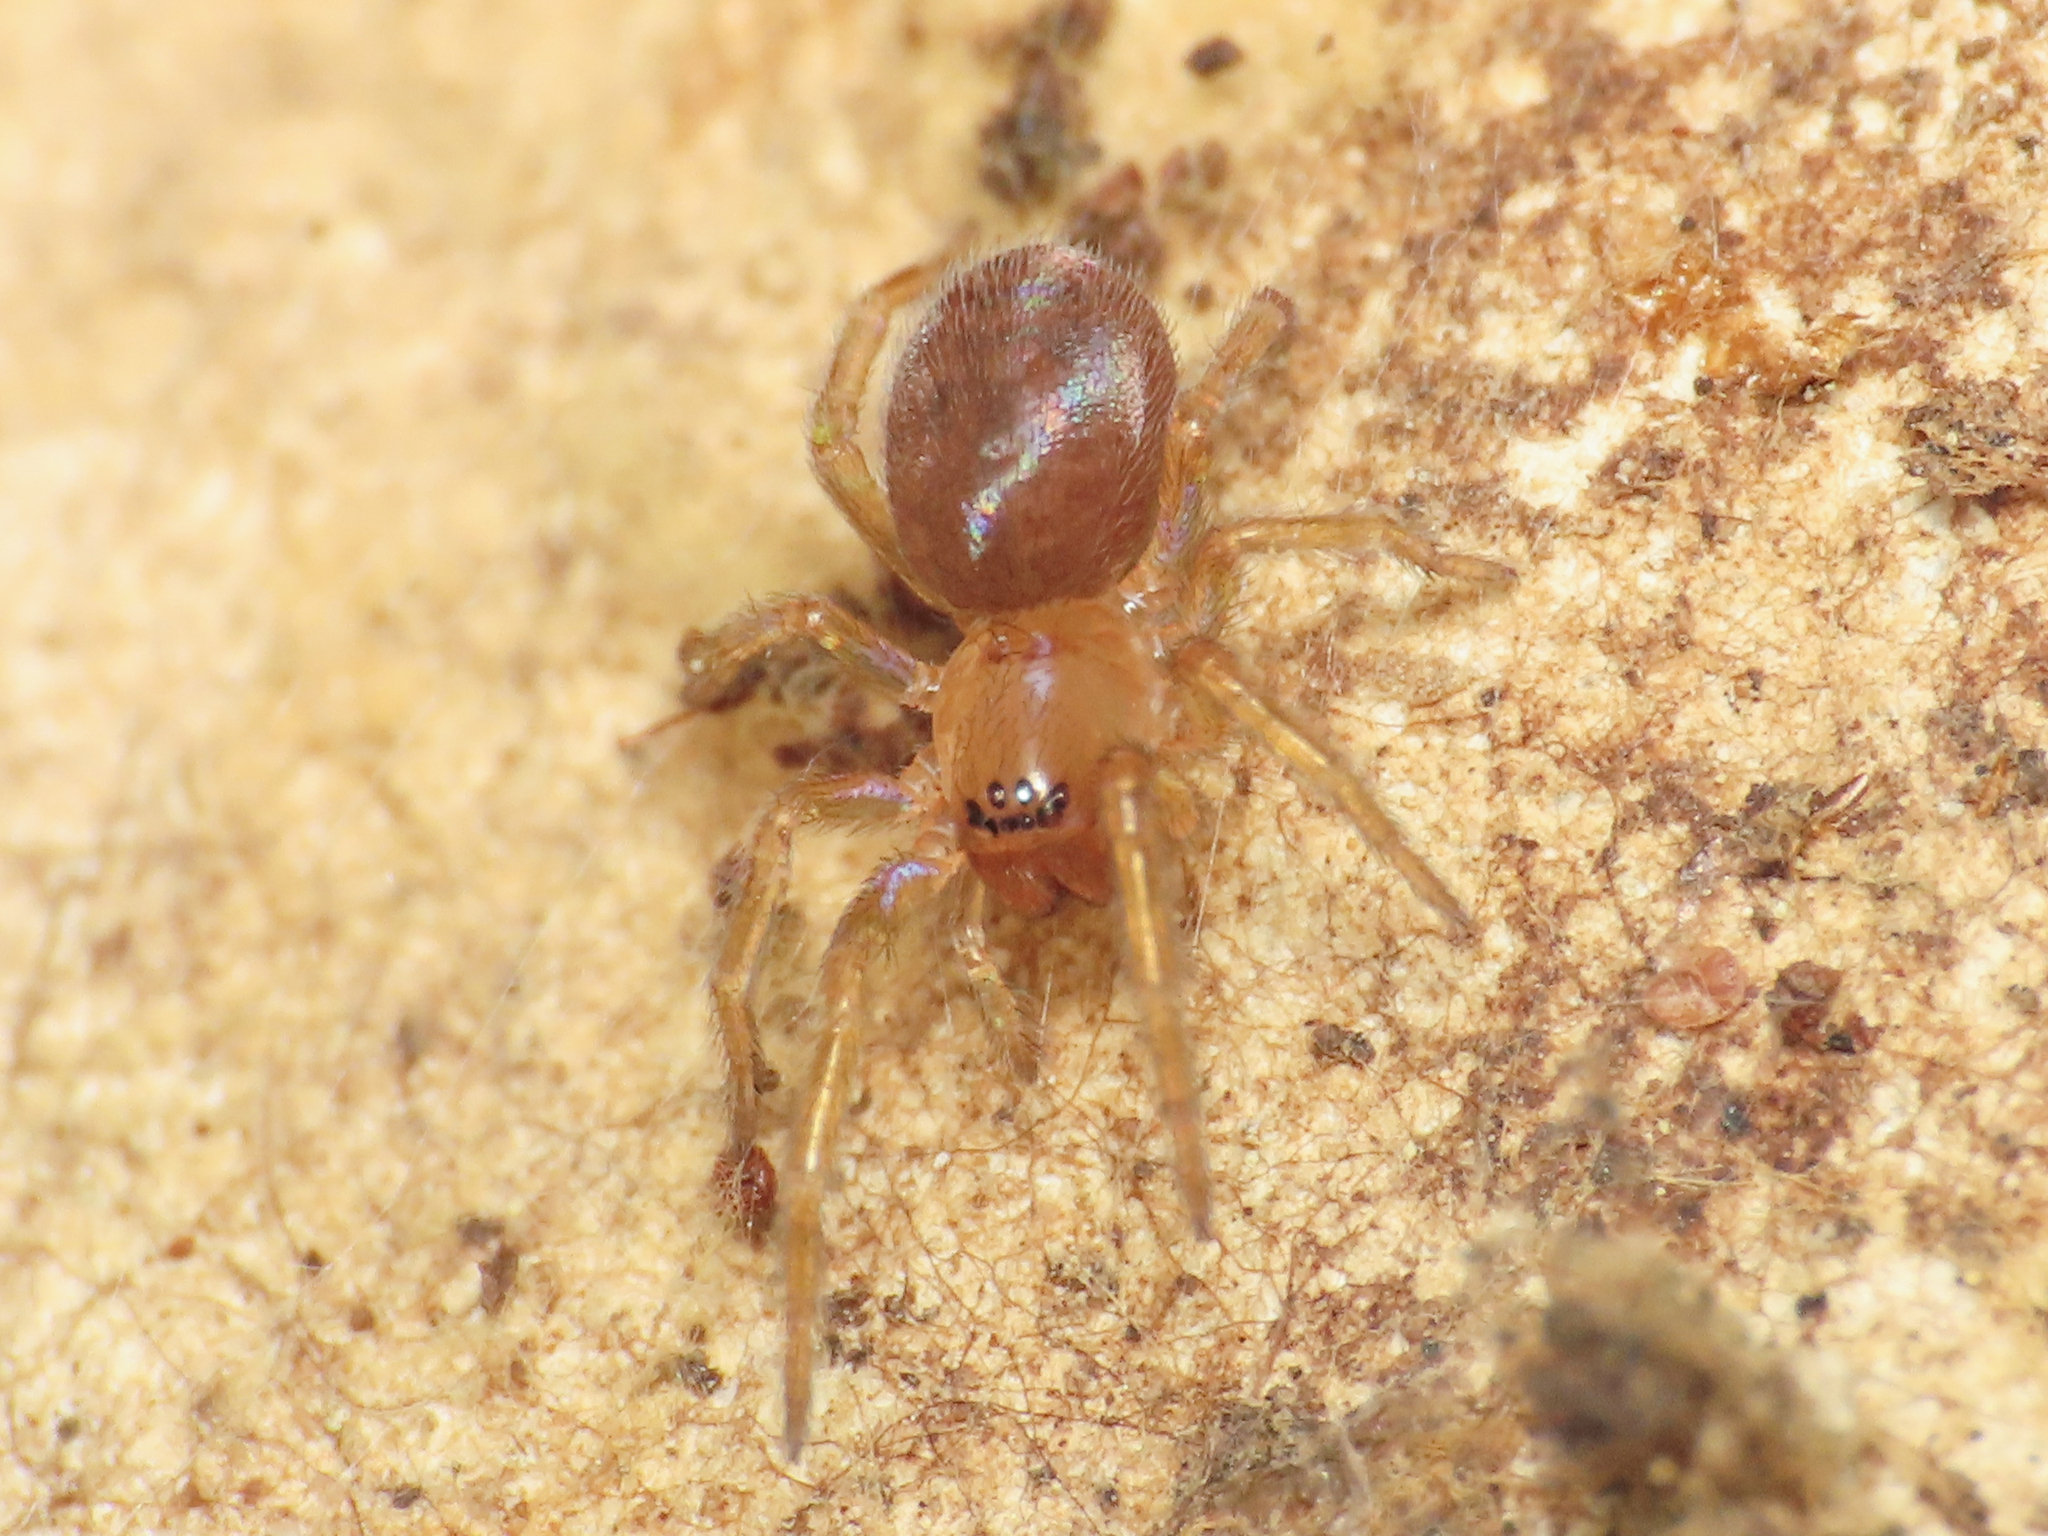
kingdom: Animalia
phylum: Arthropoda
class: Arachnida
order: Araneae
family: Amaurobiidae
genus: Amaurobius
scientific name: Amaurobius erberi
